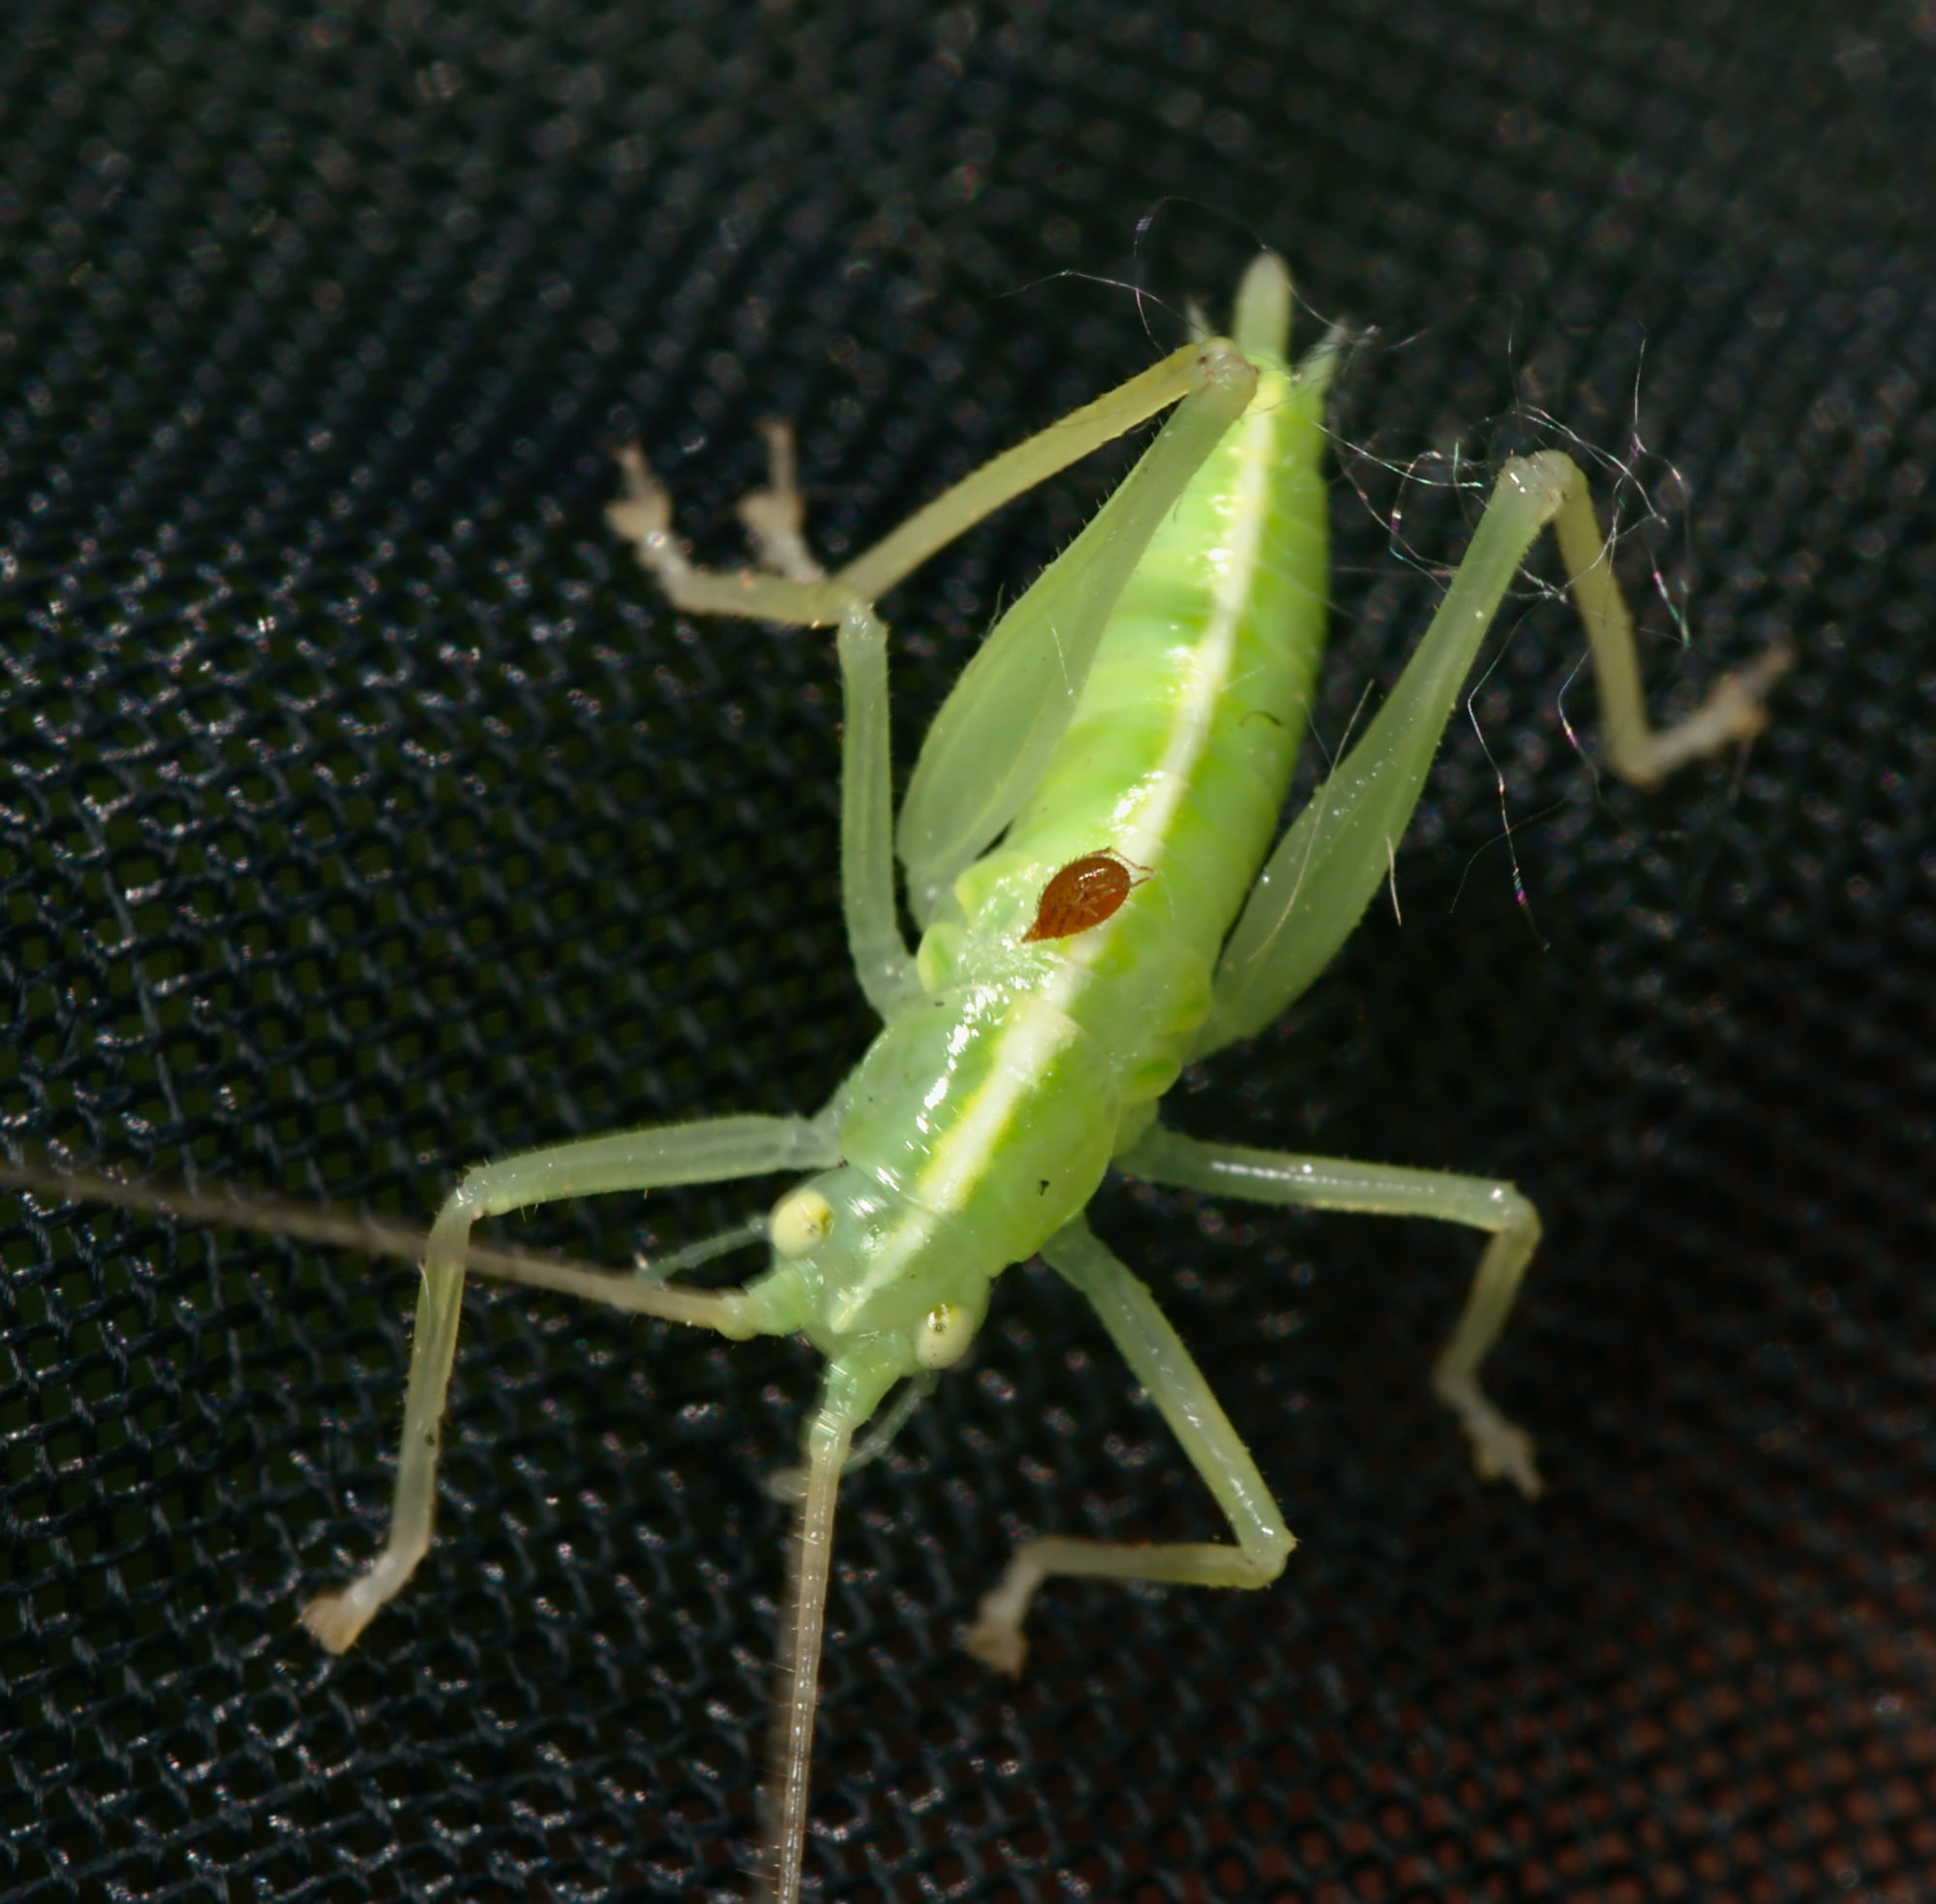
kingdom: Animalia
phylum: Arthropoda
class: Insecta
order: Orthoptera
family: Tettigoniidae
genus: Meconema
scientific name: Meconema thalassinum
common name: Oak bush-cricket
